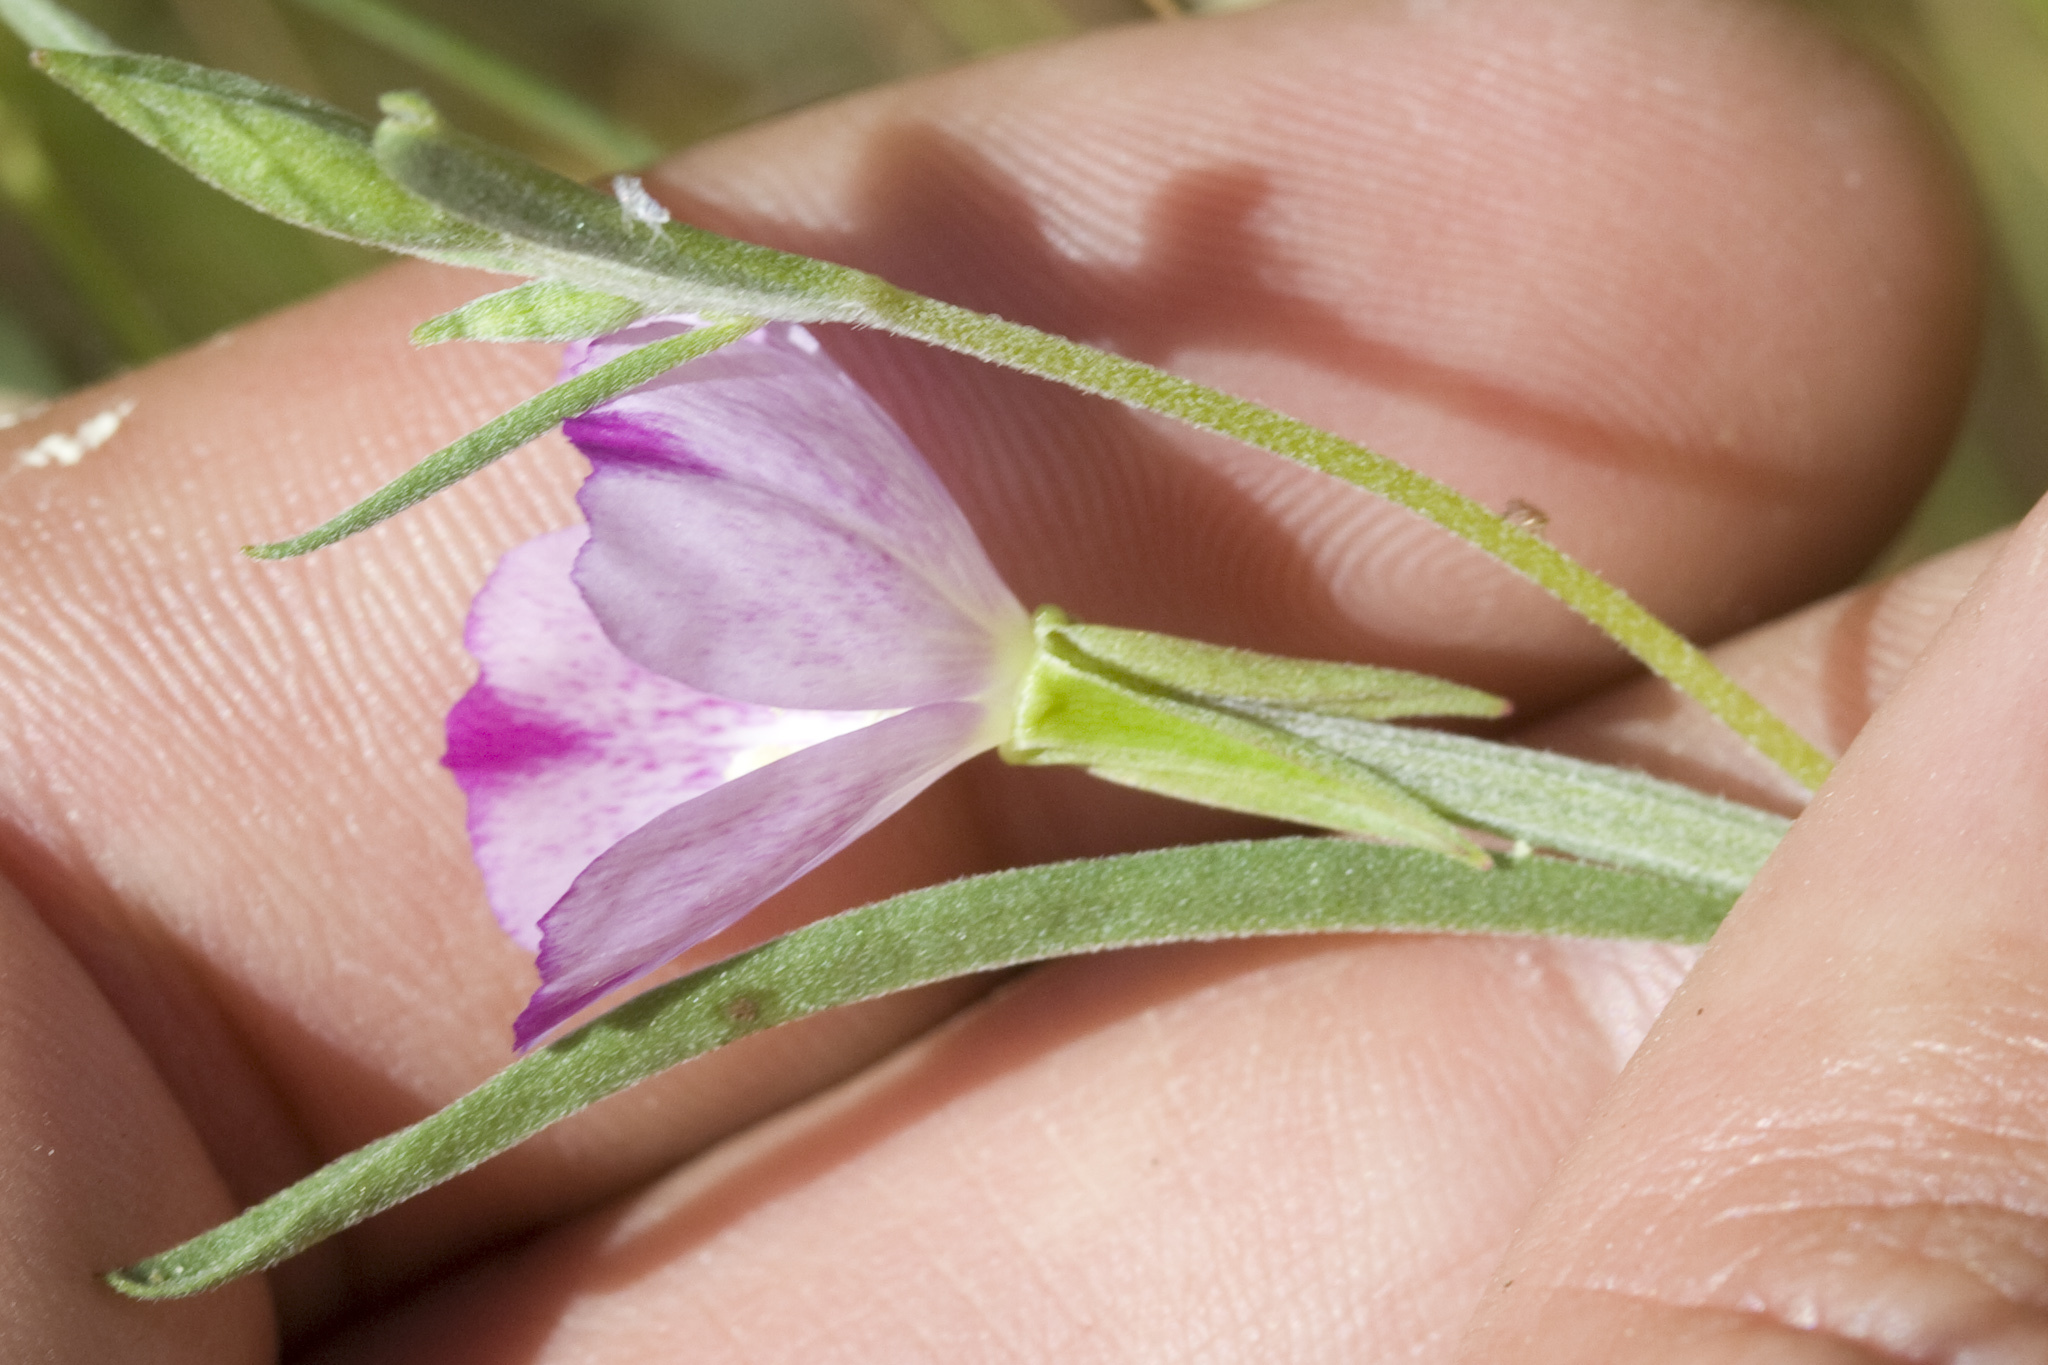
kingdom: Plantae
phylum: Tracheophyta
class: Magnoliopsida
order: Myrtales
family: Onagraceae
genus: Clarkia
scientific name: Clarkia purpurea
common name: Purple clarkia
